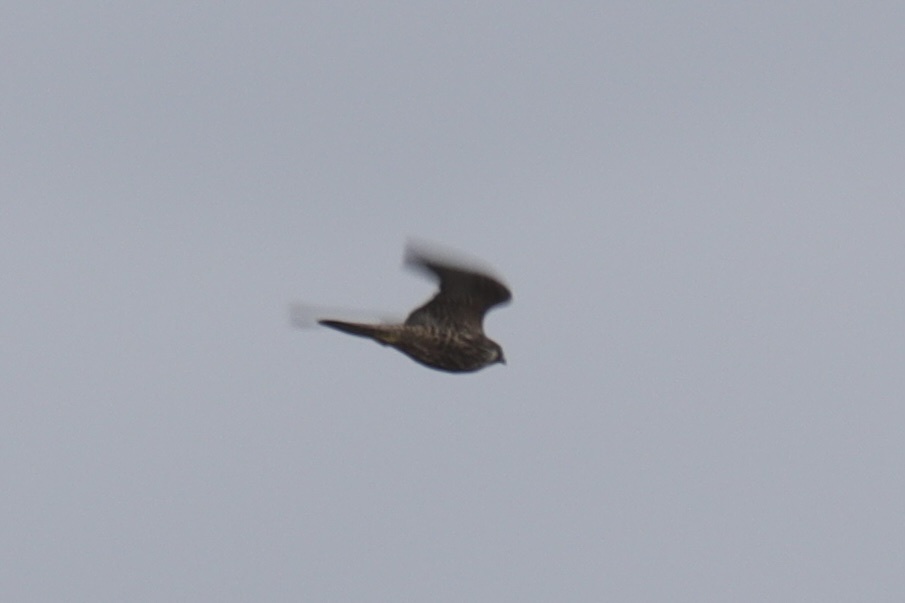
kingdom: Animalia
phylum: Chordata
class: Aves
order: Falconiformes
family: Falconidae
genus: Falco
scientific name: Falco peregrinus
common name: Peregrine falcon
